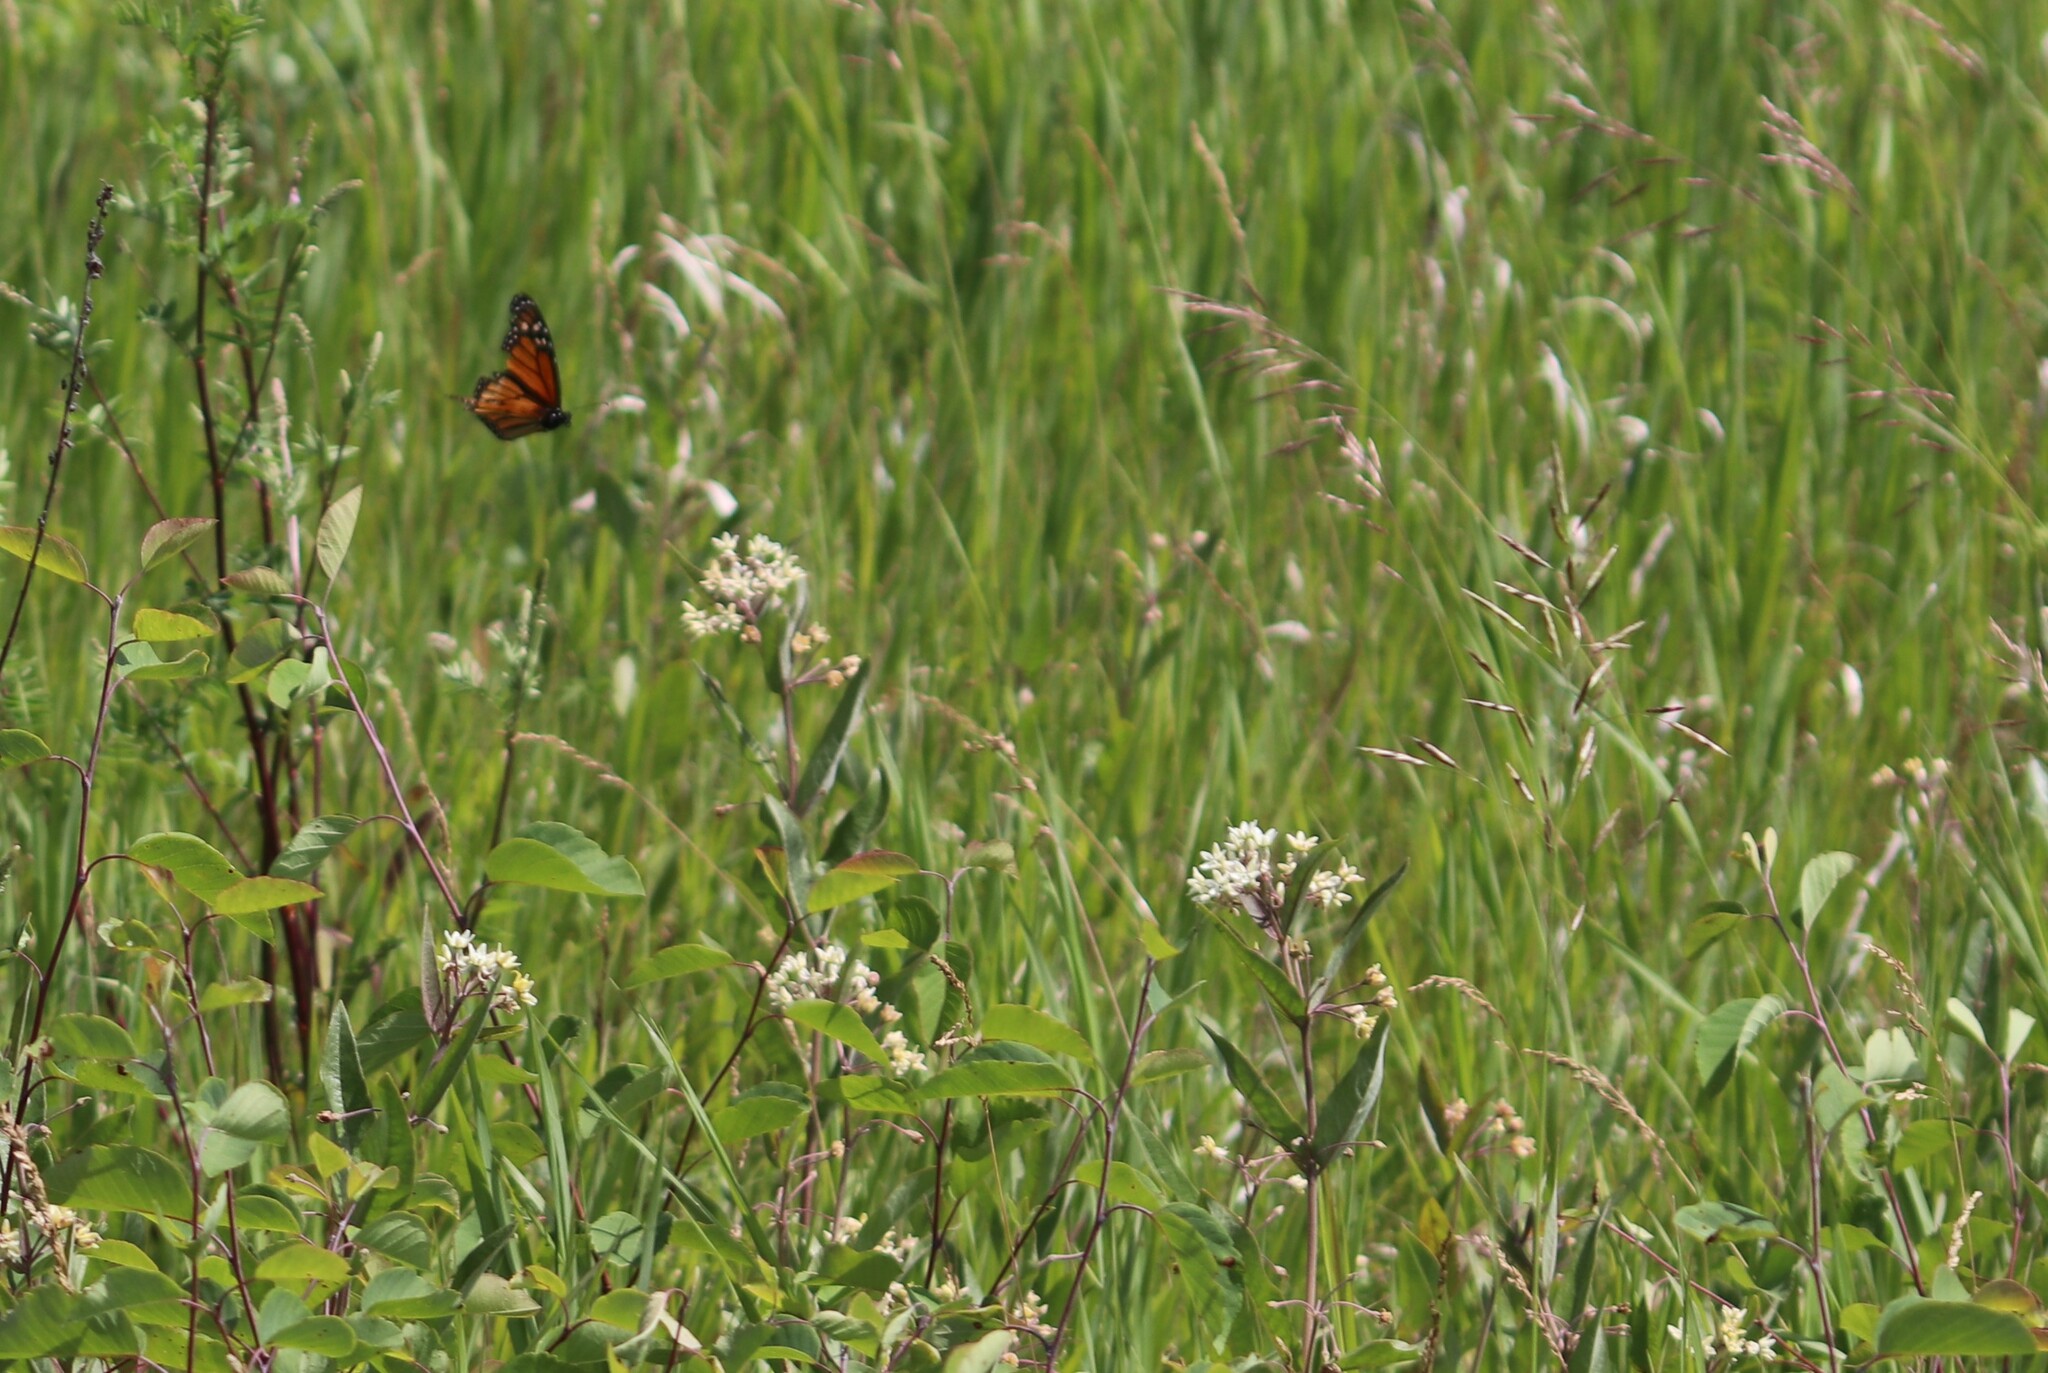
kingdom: Animalia
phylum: Arthropoda
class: Insecta
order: Lepidoptera
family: Nymphalidae
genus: Danaus
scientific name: Danaus plexippus
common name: Monarch
